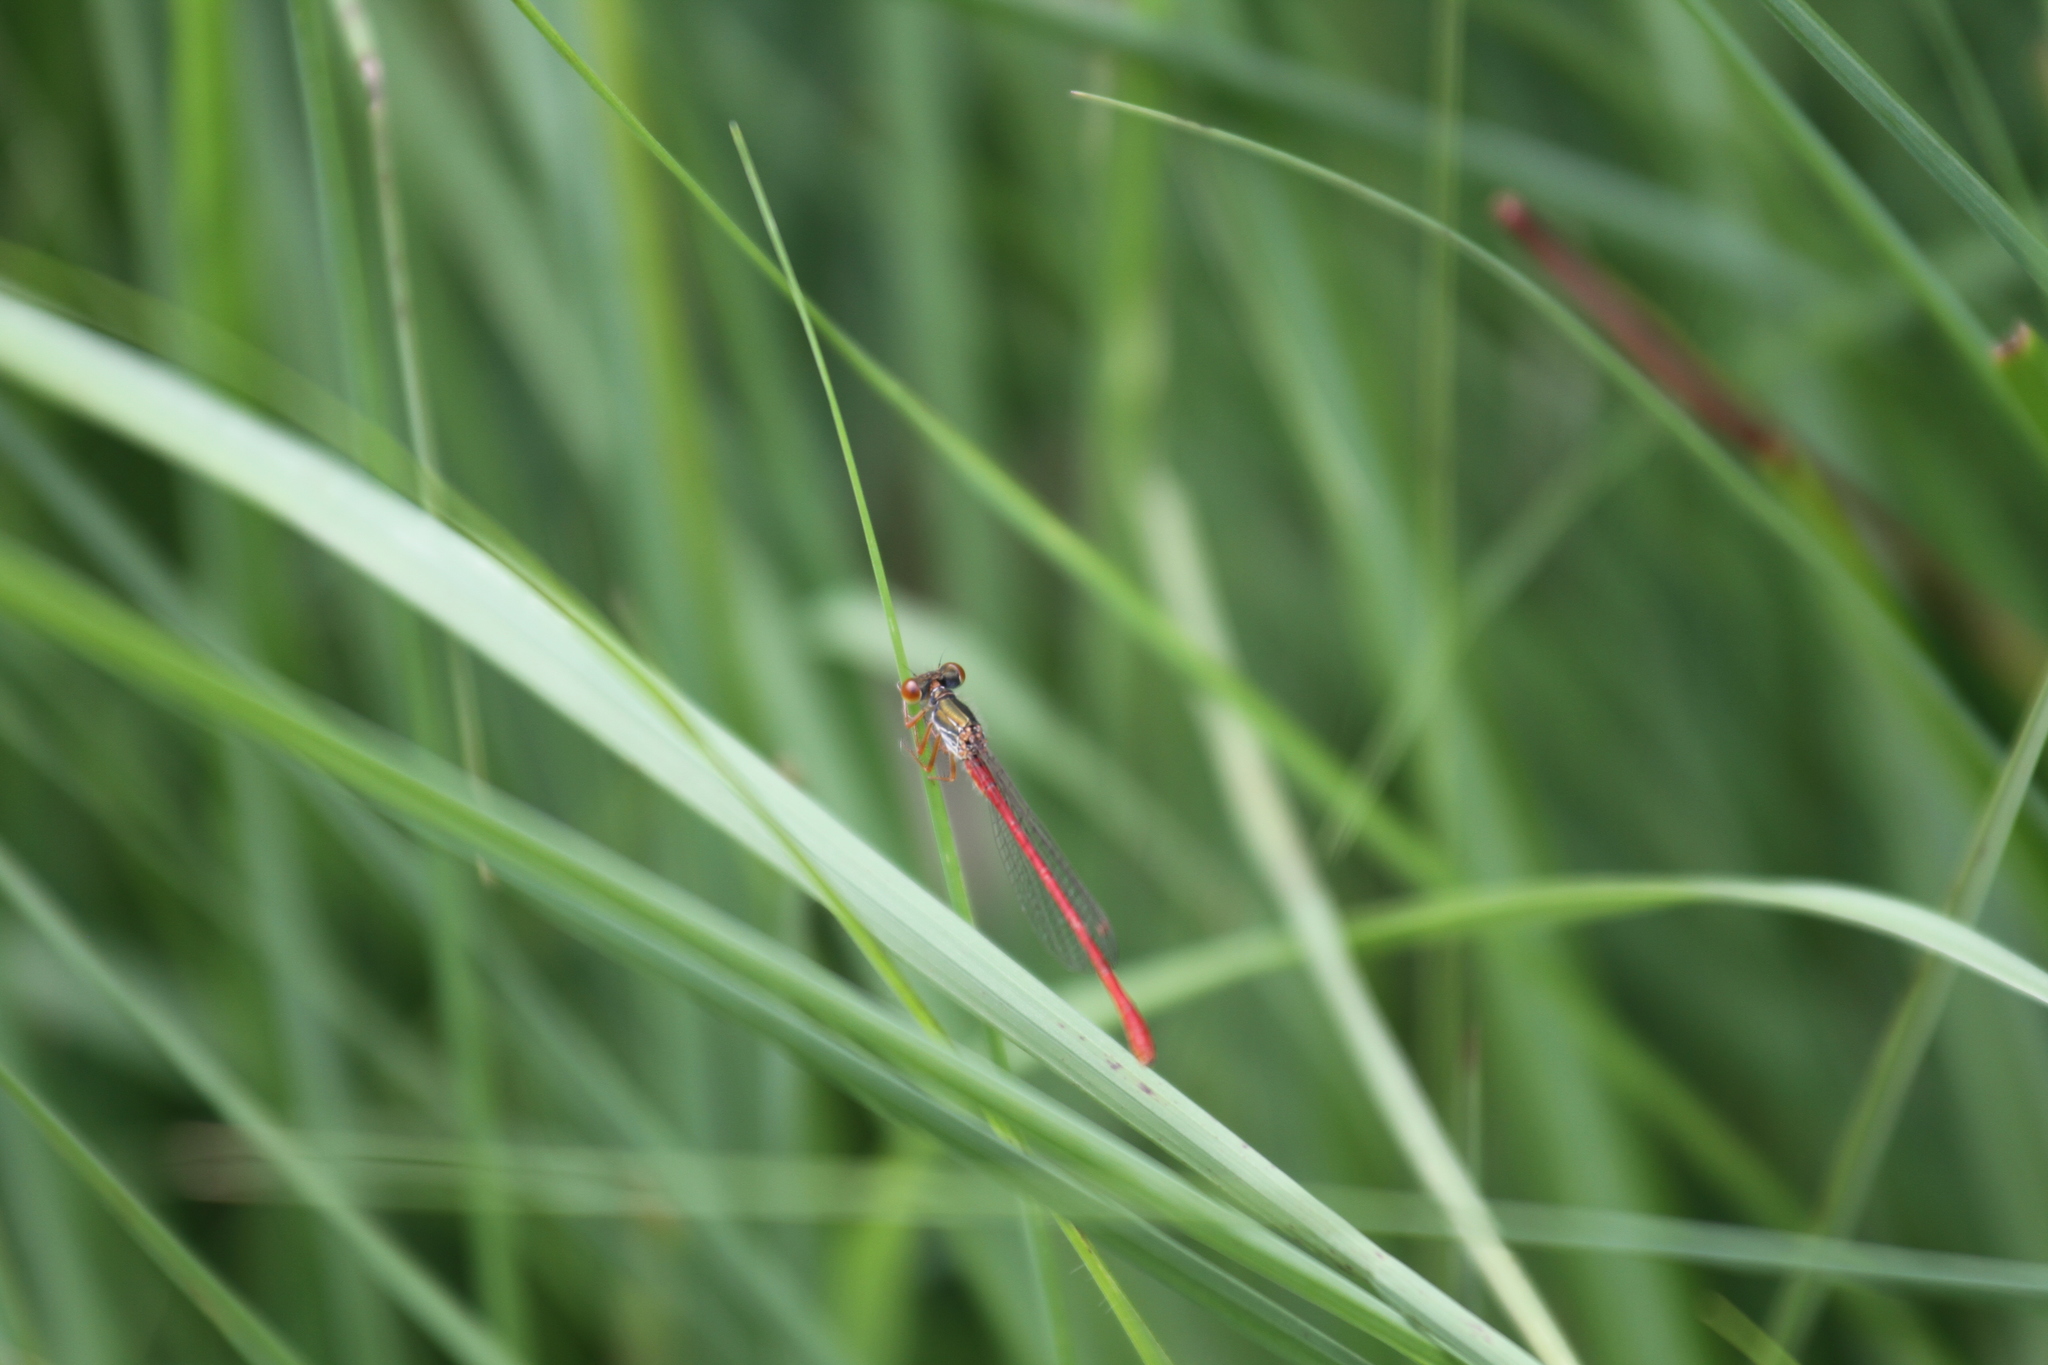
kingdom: Animalia
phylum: Arthropoda
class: Insecta
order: Odonata
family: Coenagrionidae
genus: Ceriagrion
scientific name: Ceriagrion tenellum
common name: Small red damselfly
